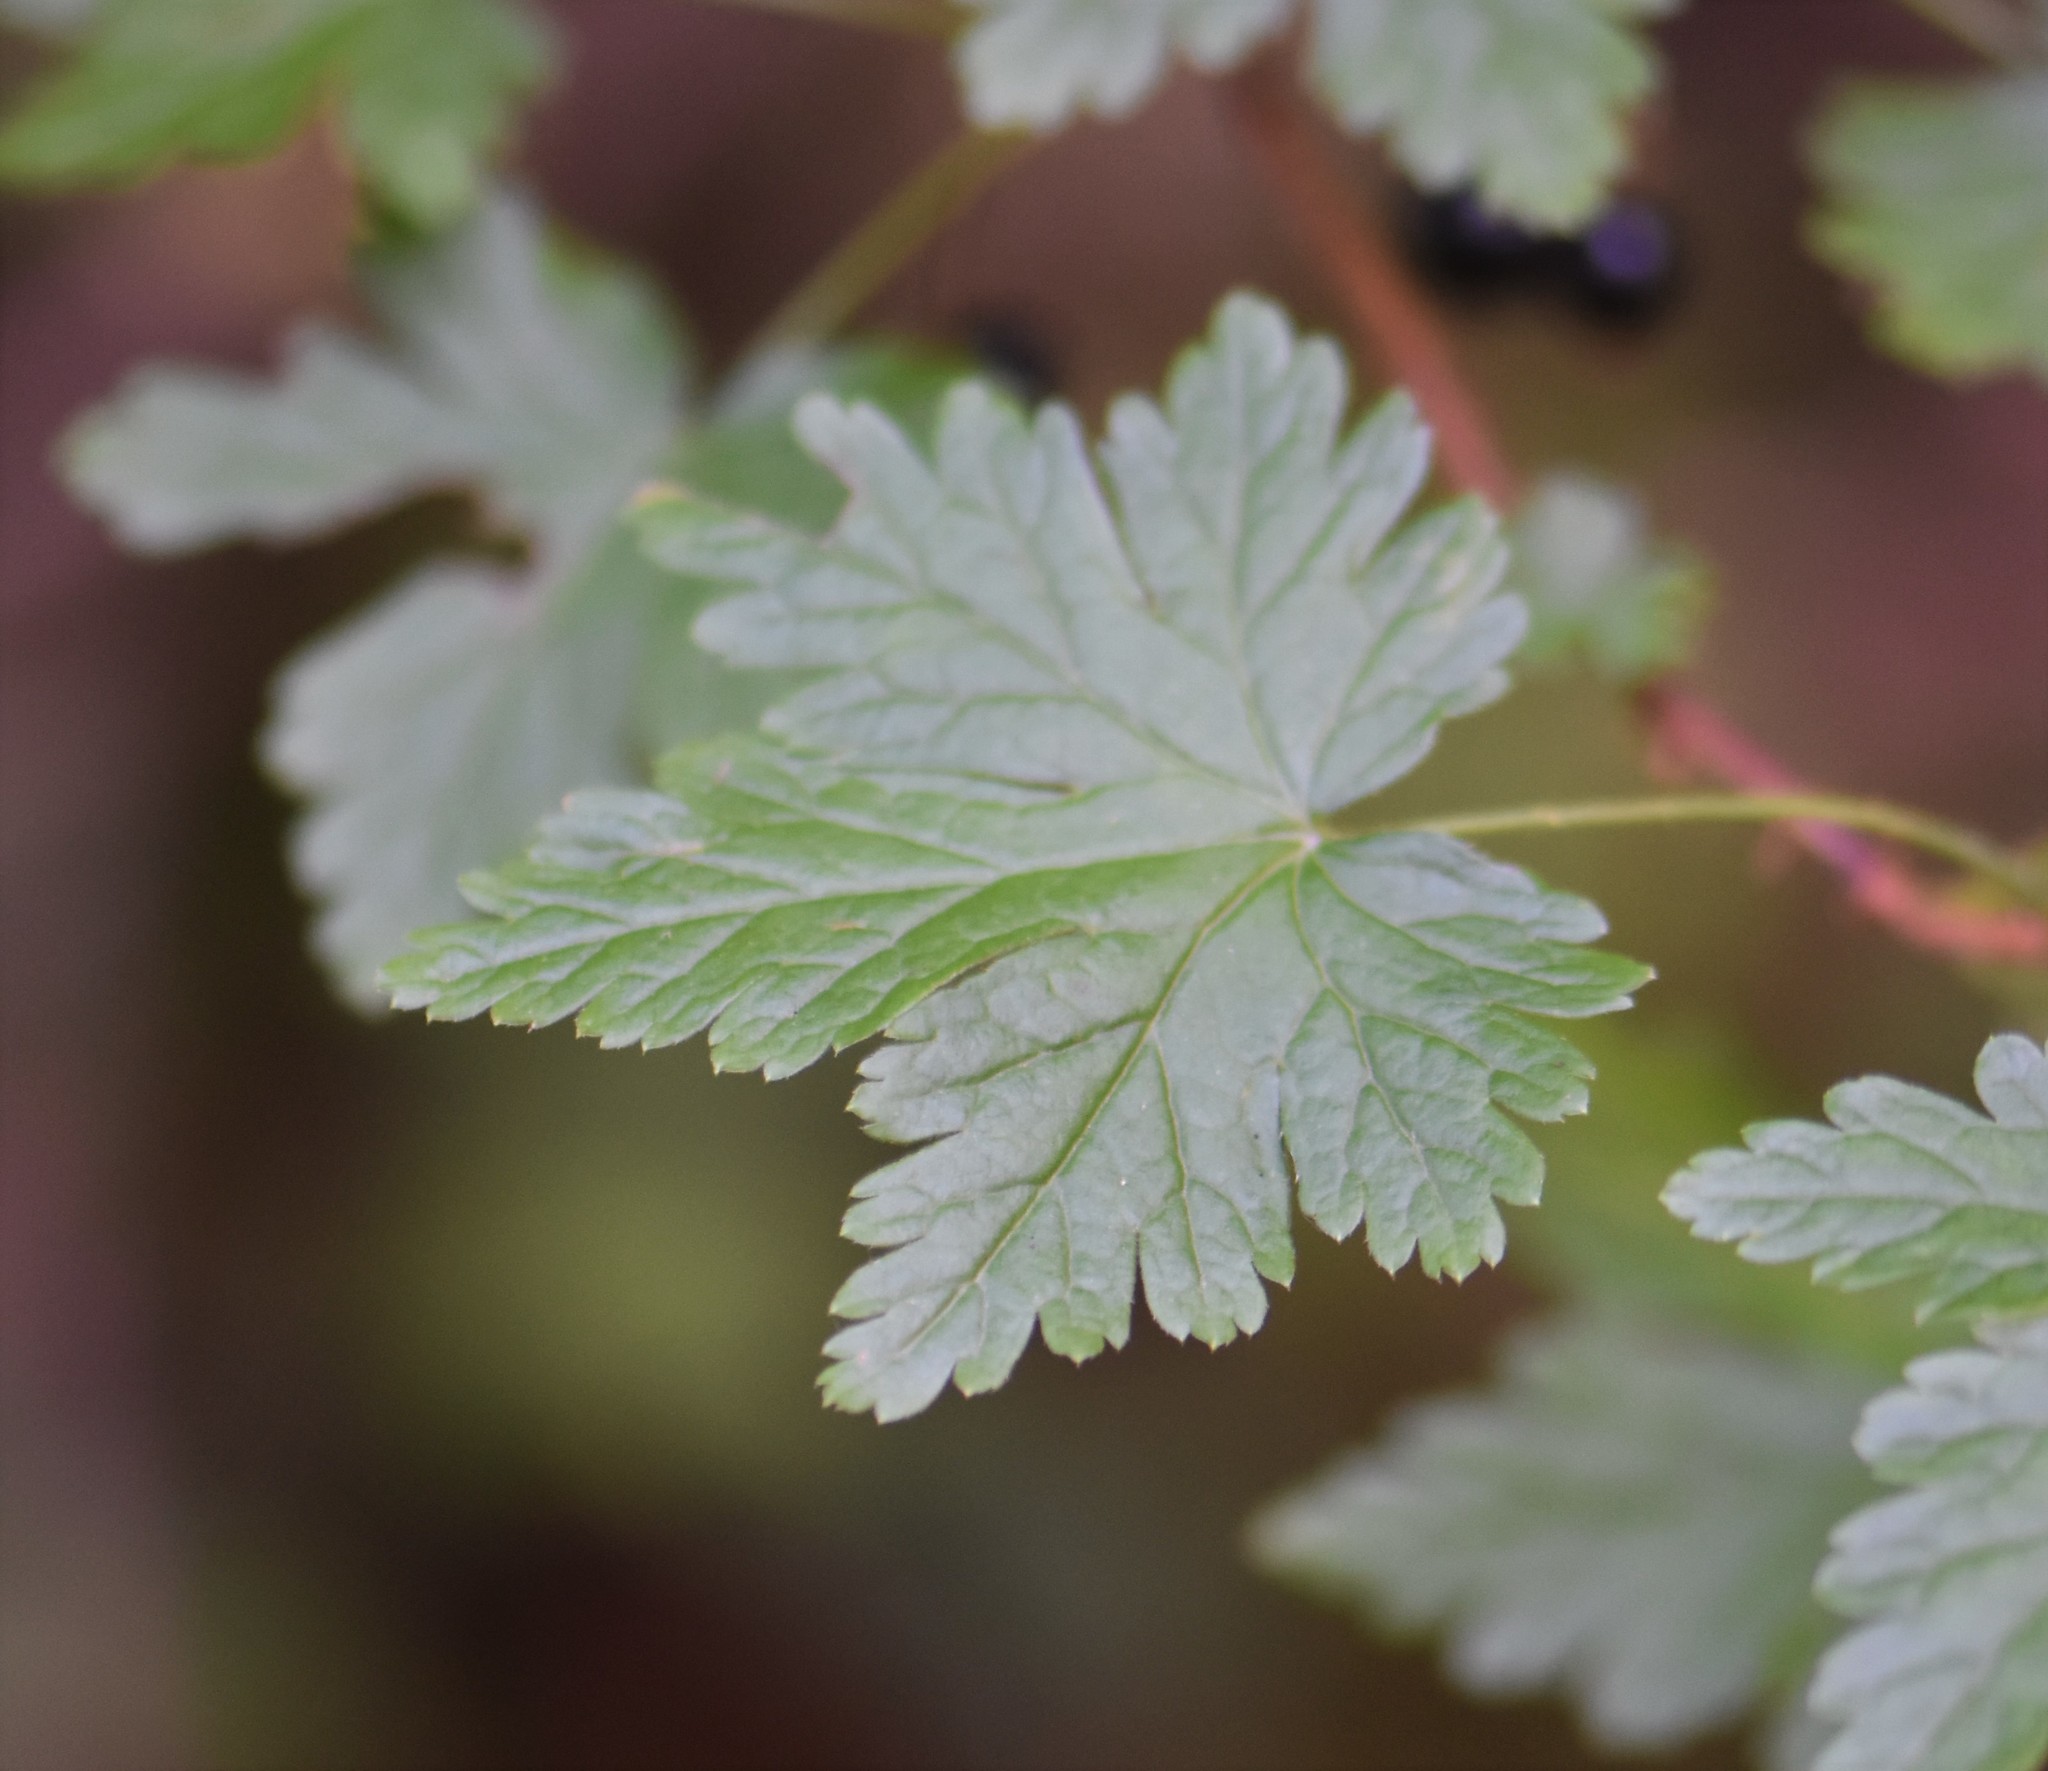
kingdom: Plantae
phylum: Tracheophyta
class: Magnoliopsida
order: Saxifragales
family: Grossulariaceae
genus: Ribes
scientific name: Ribes lacustre
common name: Black gooseberry
